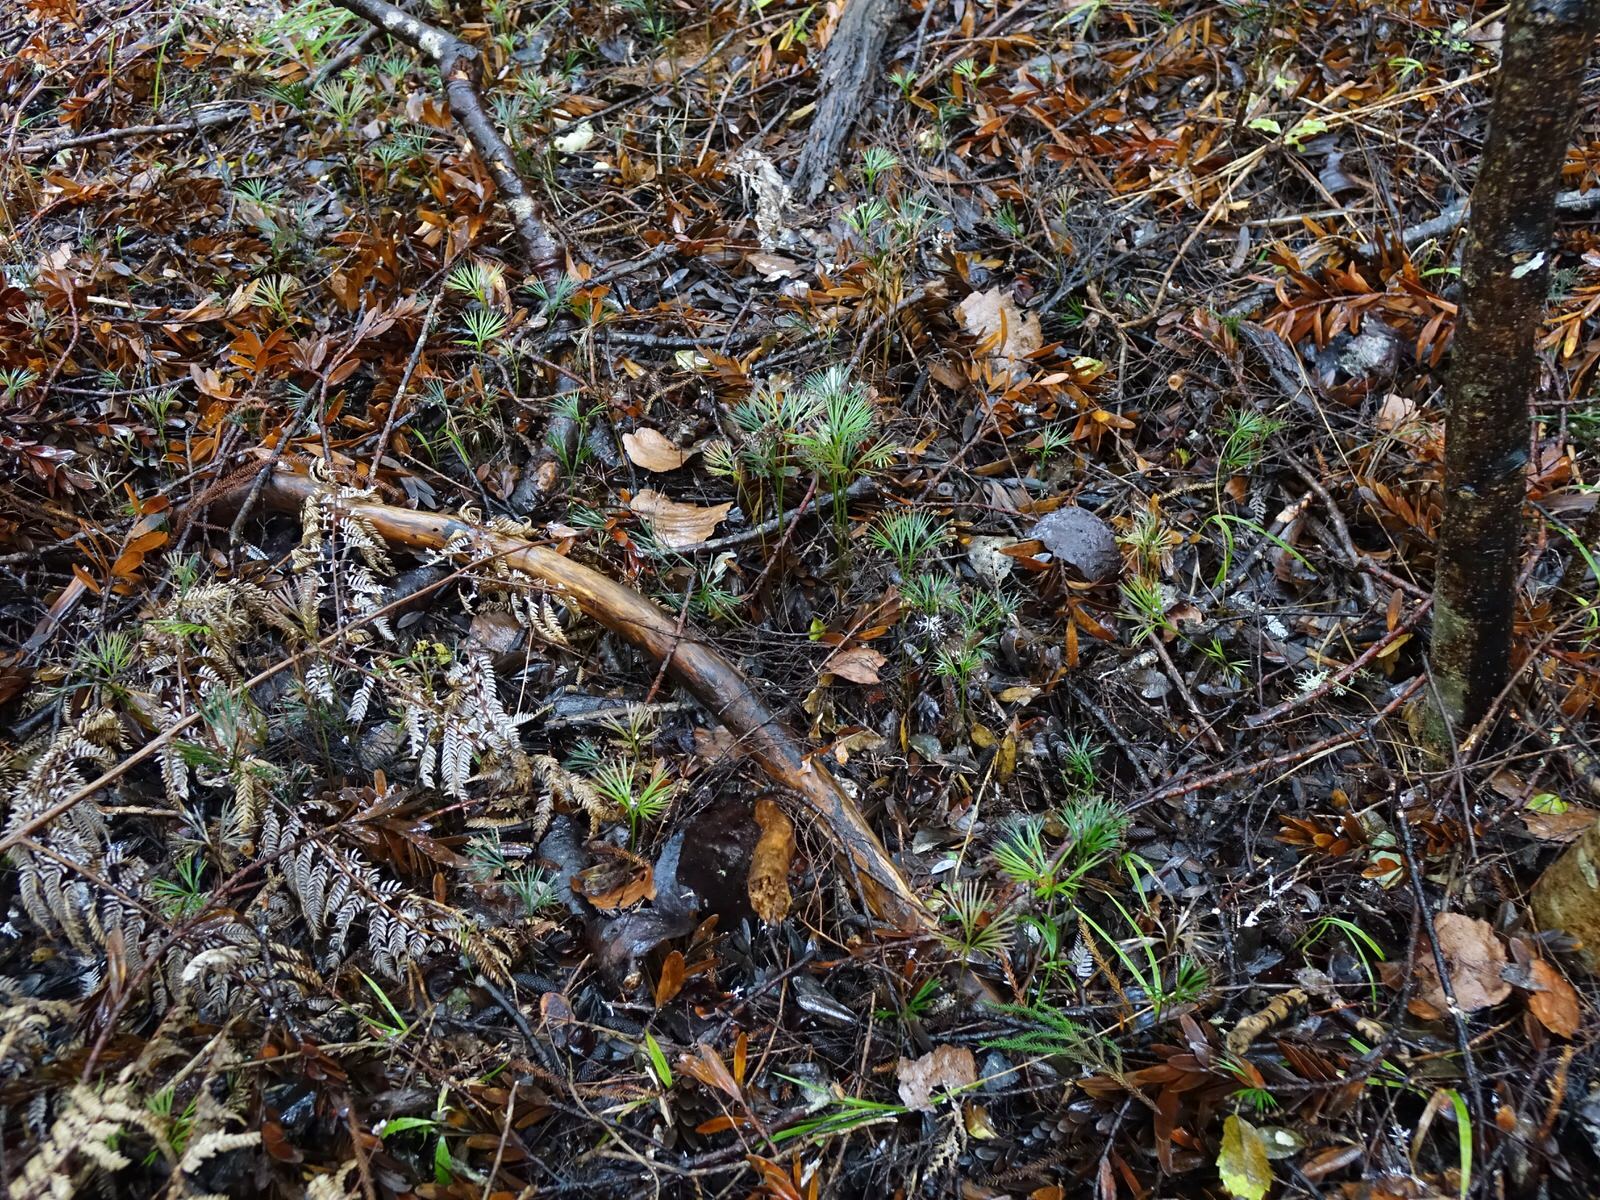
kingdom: Plantae
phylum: Tracheophyta
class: Polypodiopsida
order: Schizaeales
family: Schizaeaceae
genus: Schizaea
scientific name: Schizaea dichotoma
